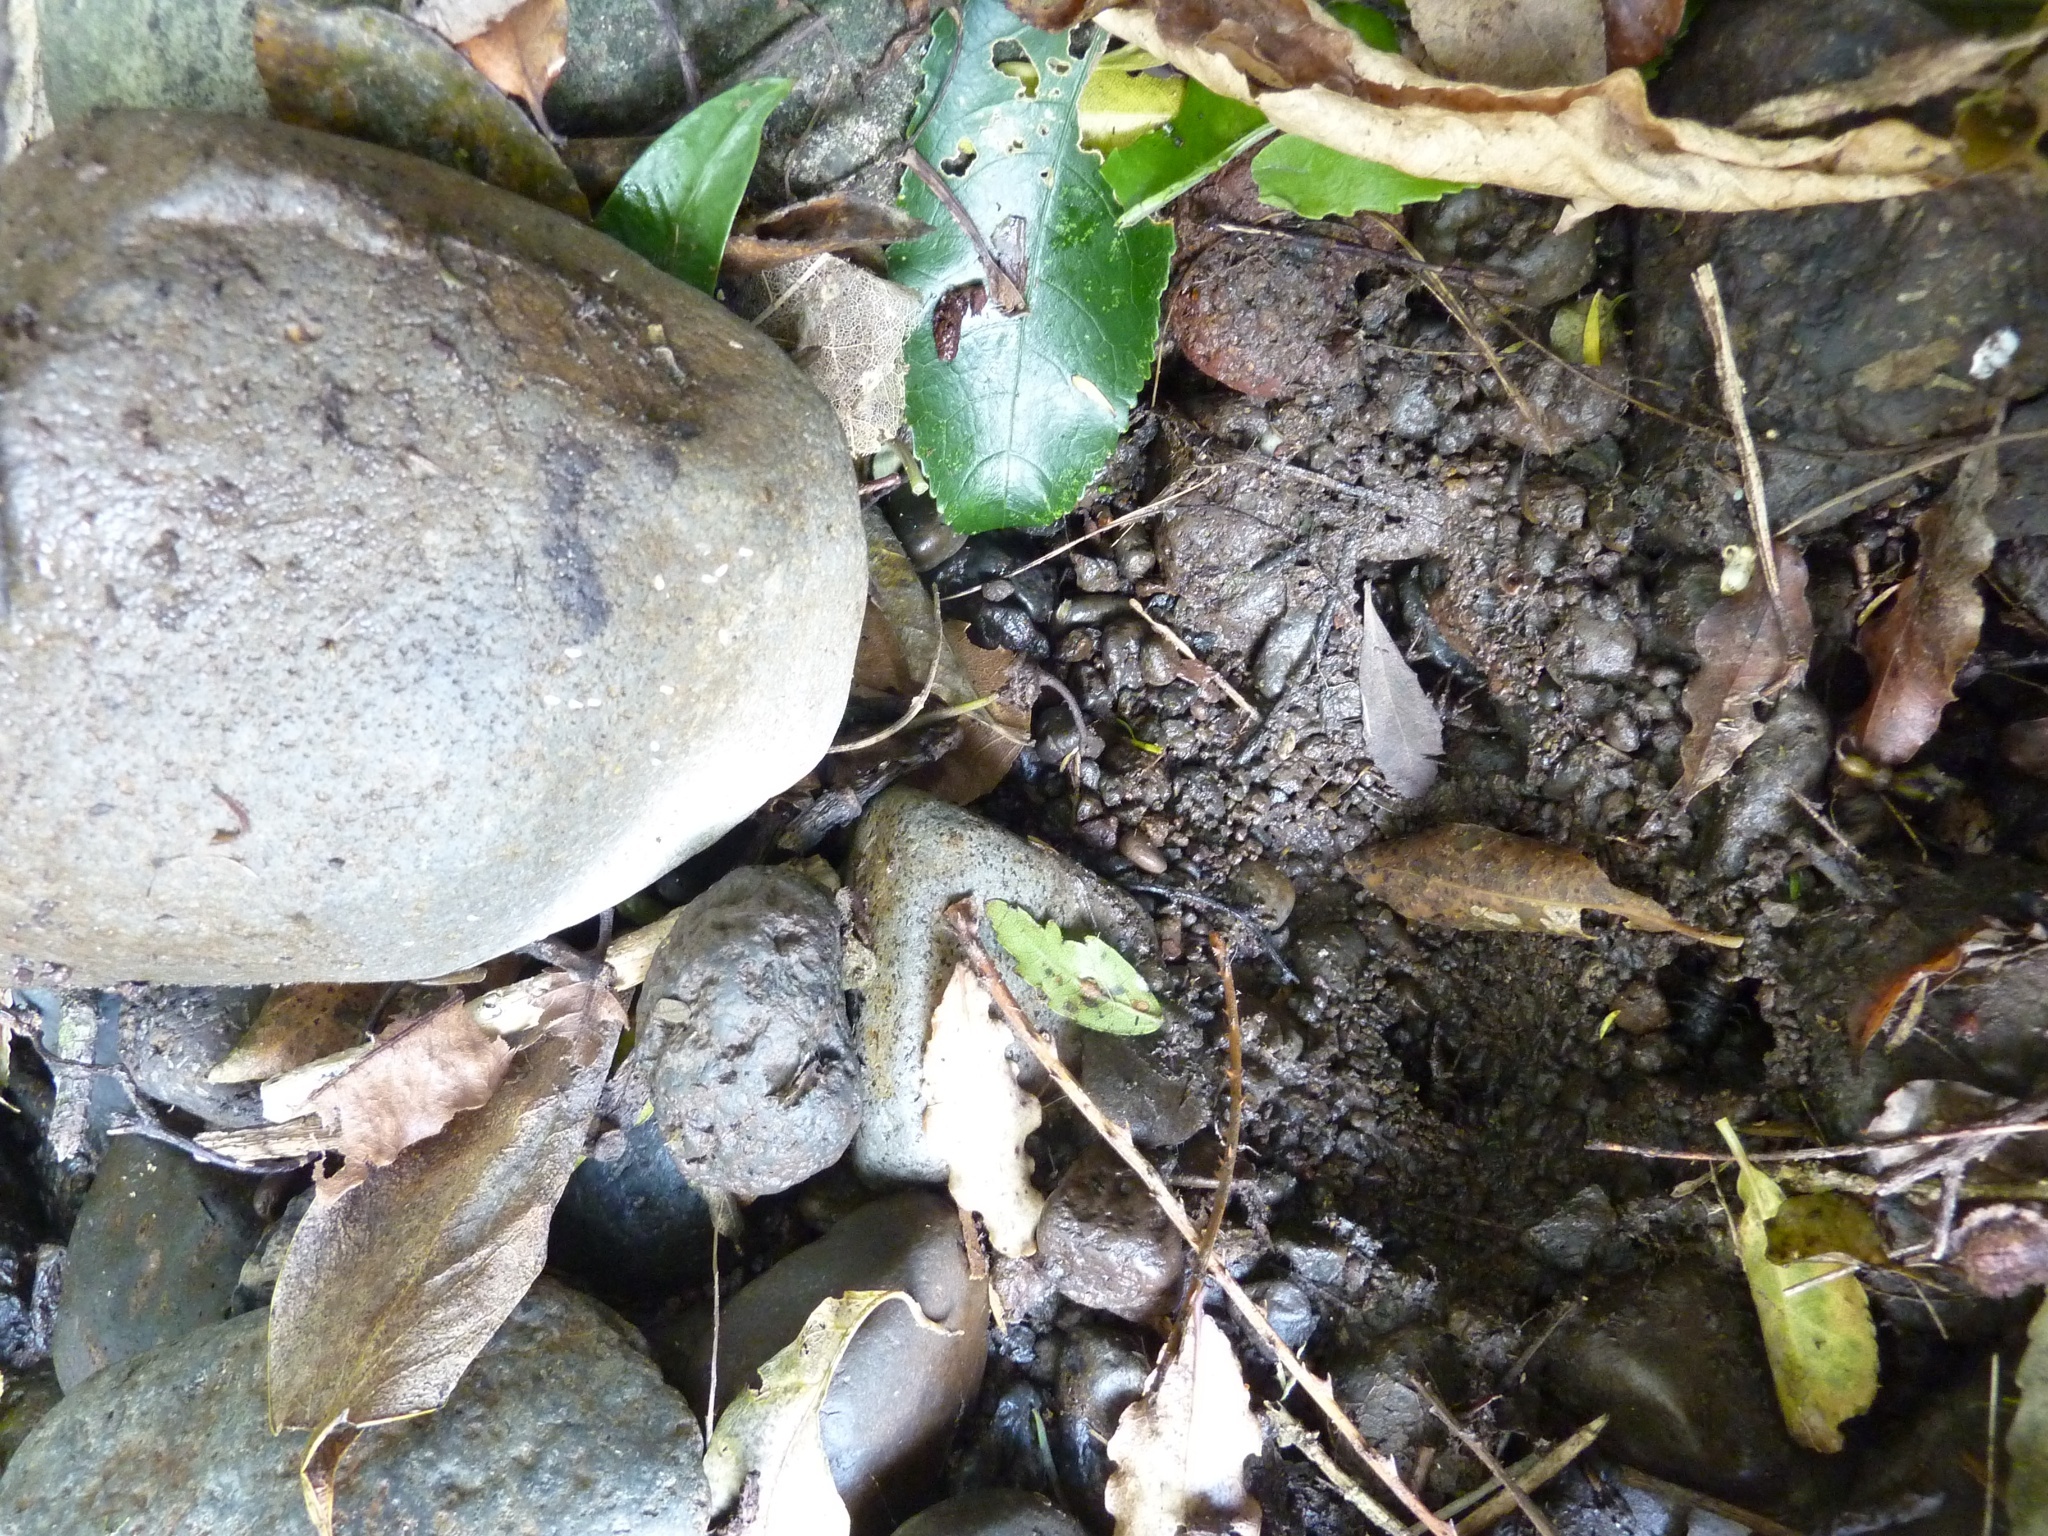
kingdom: Animalia
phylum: Arthropoda
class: Insecta
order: Megaloptera
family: Corydalidae
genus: Archichauliodes
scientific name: Archichauliodes diversus
